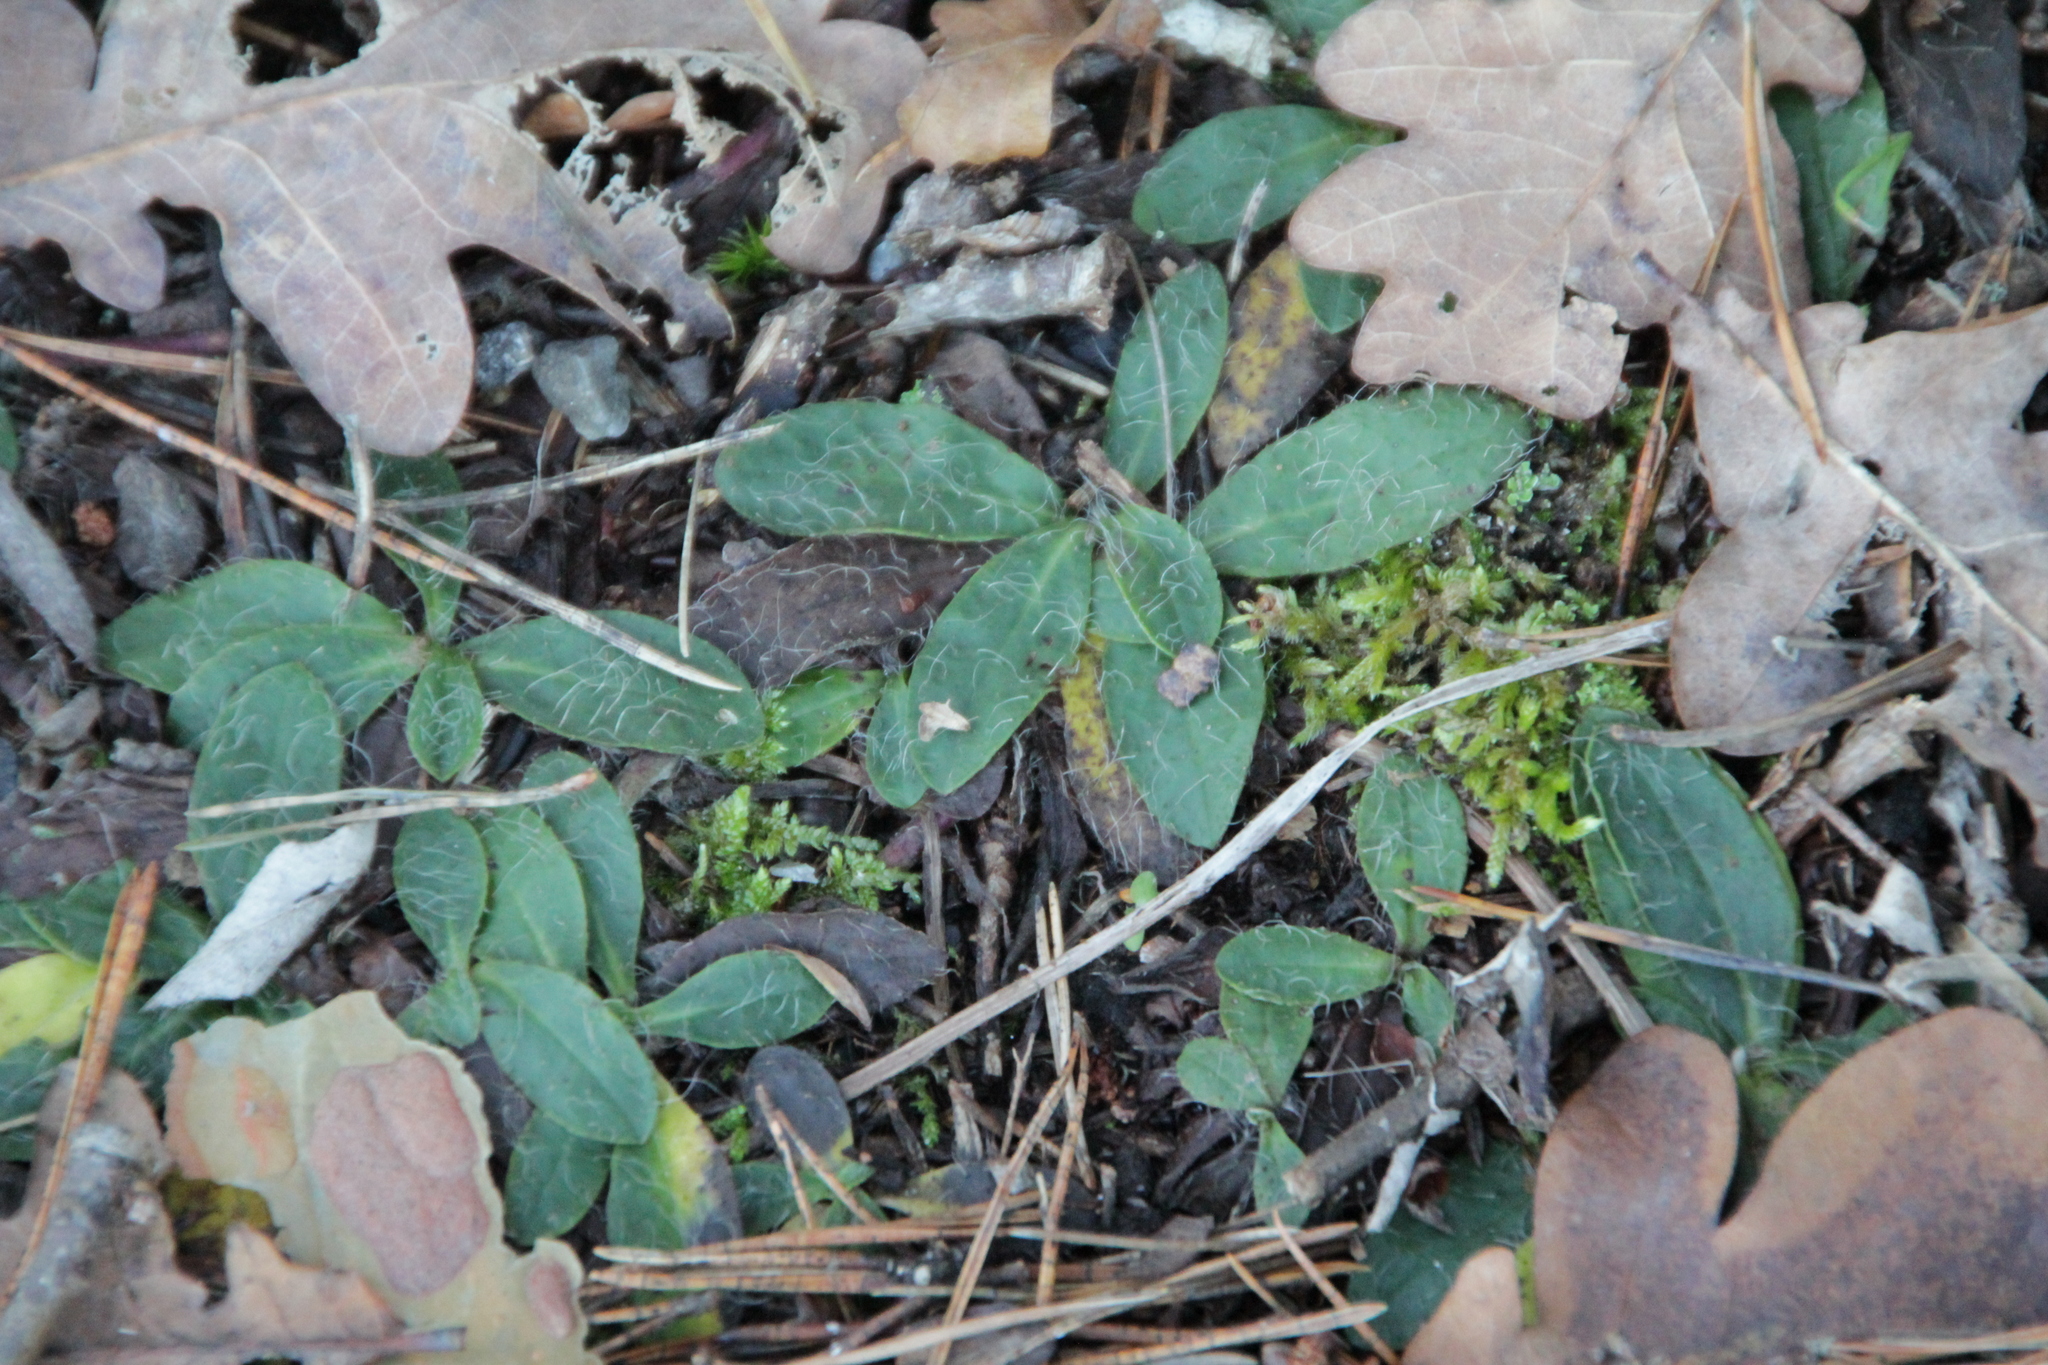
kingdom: Plantae
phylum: Tracheophyta
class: Magnoliopsida
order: Asterales
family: Asteraceae
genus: Pilosella
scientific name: Pilosella officinarum
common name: Mouse-ear hawkweed
